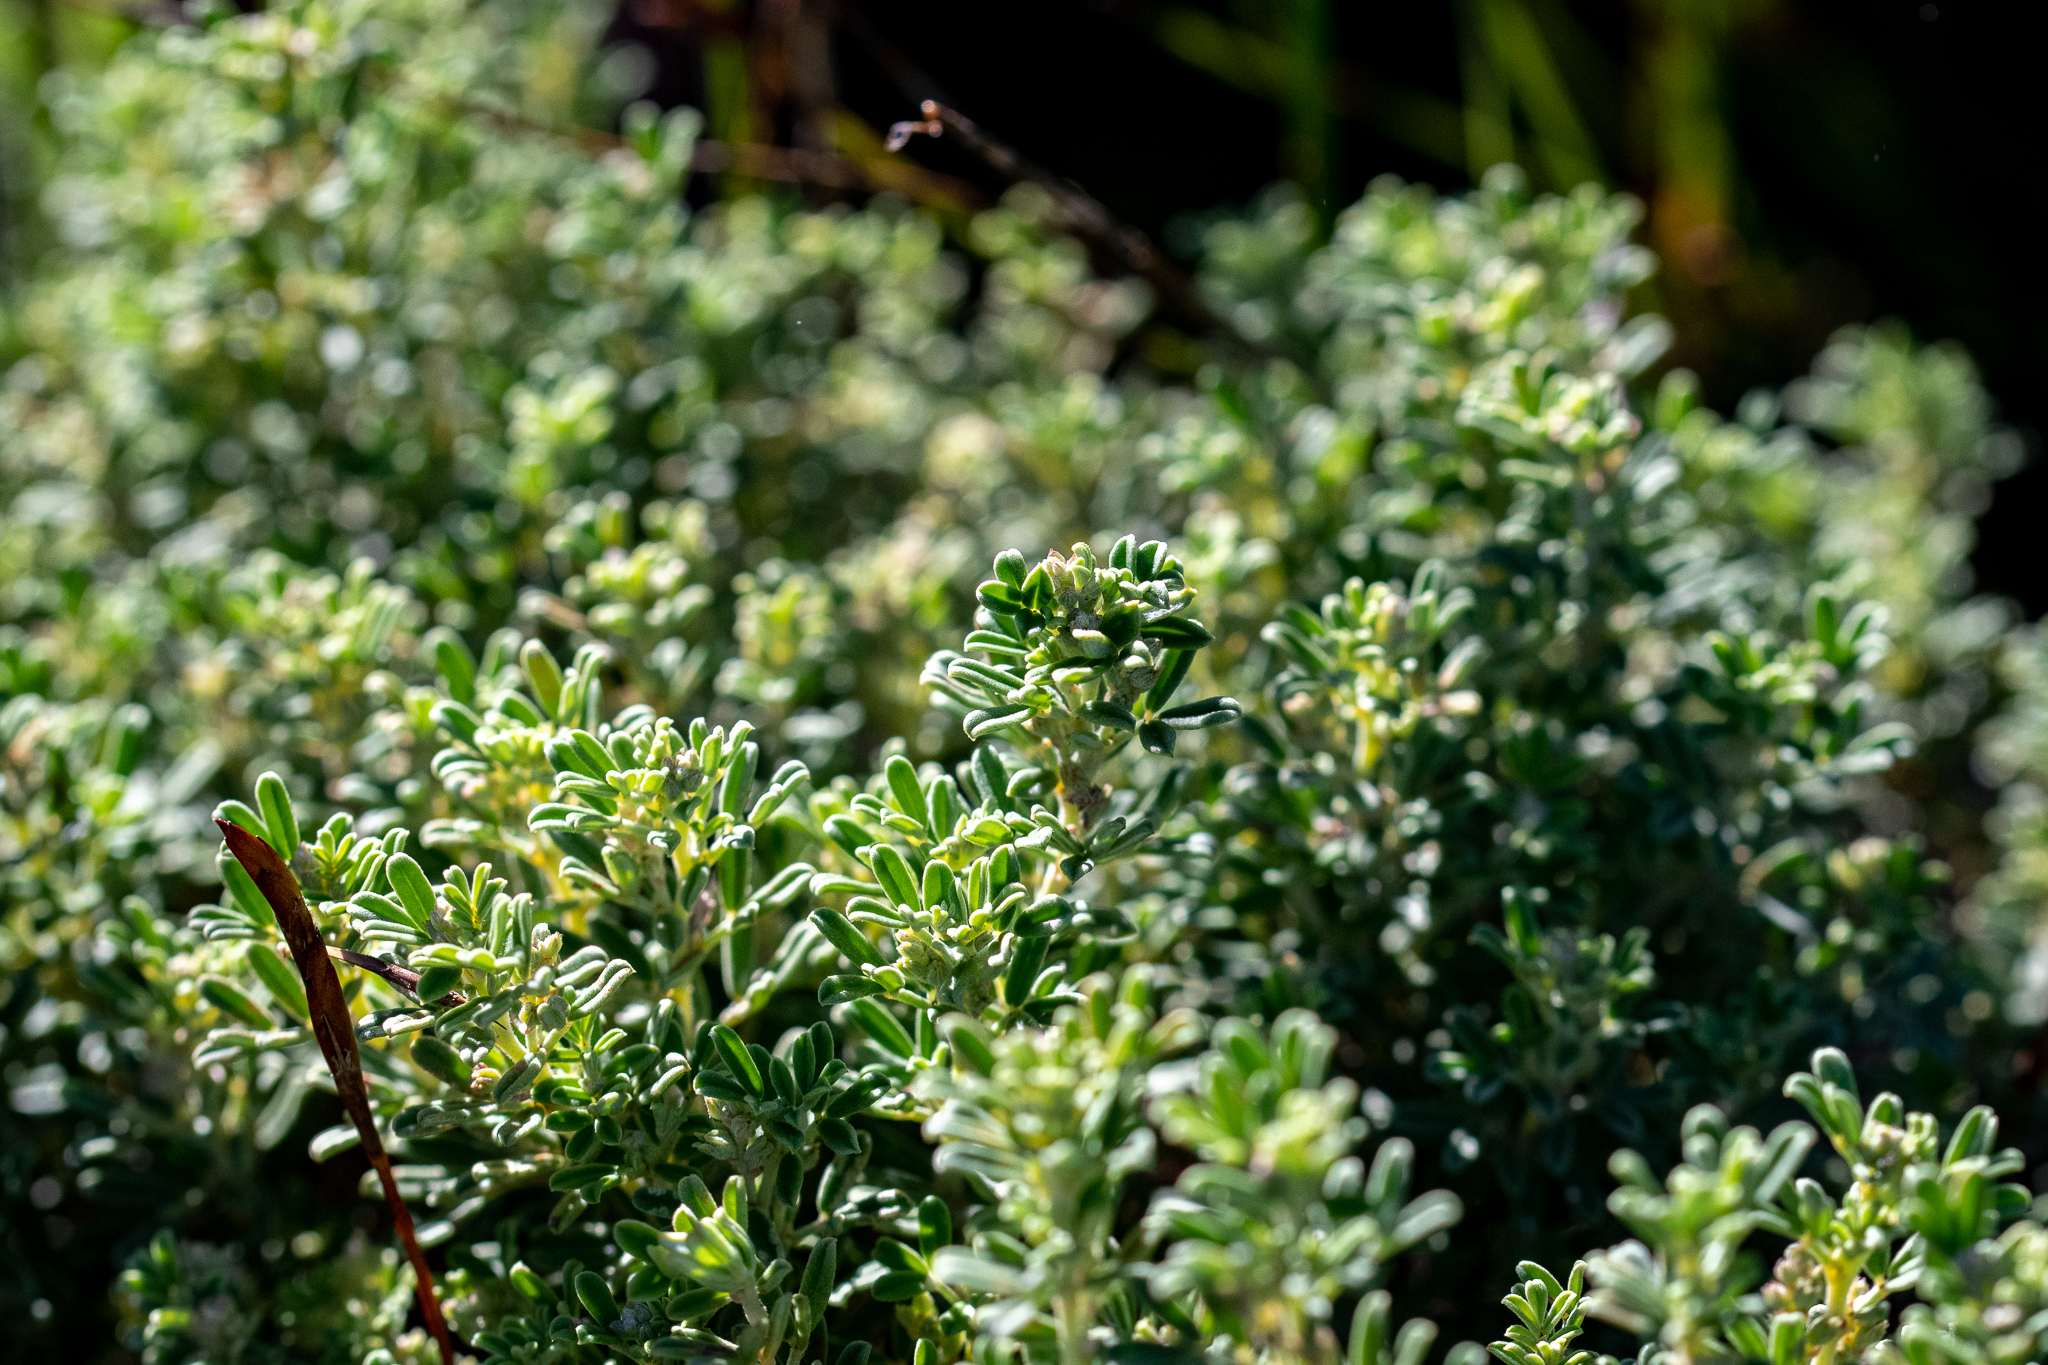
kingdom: Plantae
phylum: Tracheophyta
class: Magnoliopsida
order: Fabales
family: Fabaceae
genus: Indigofera
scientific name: Indigofera brachystachya
